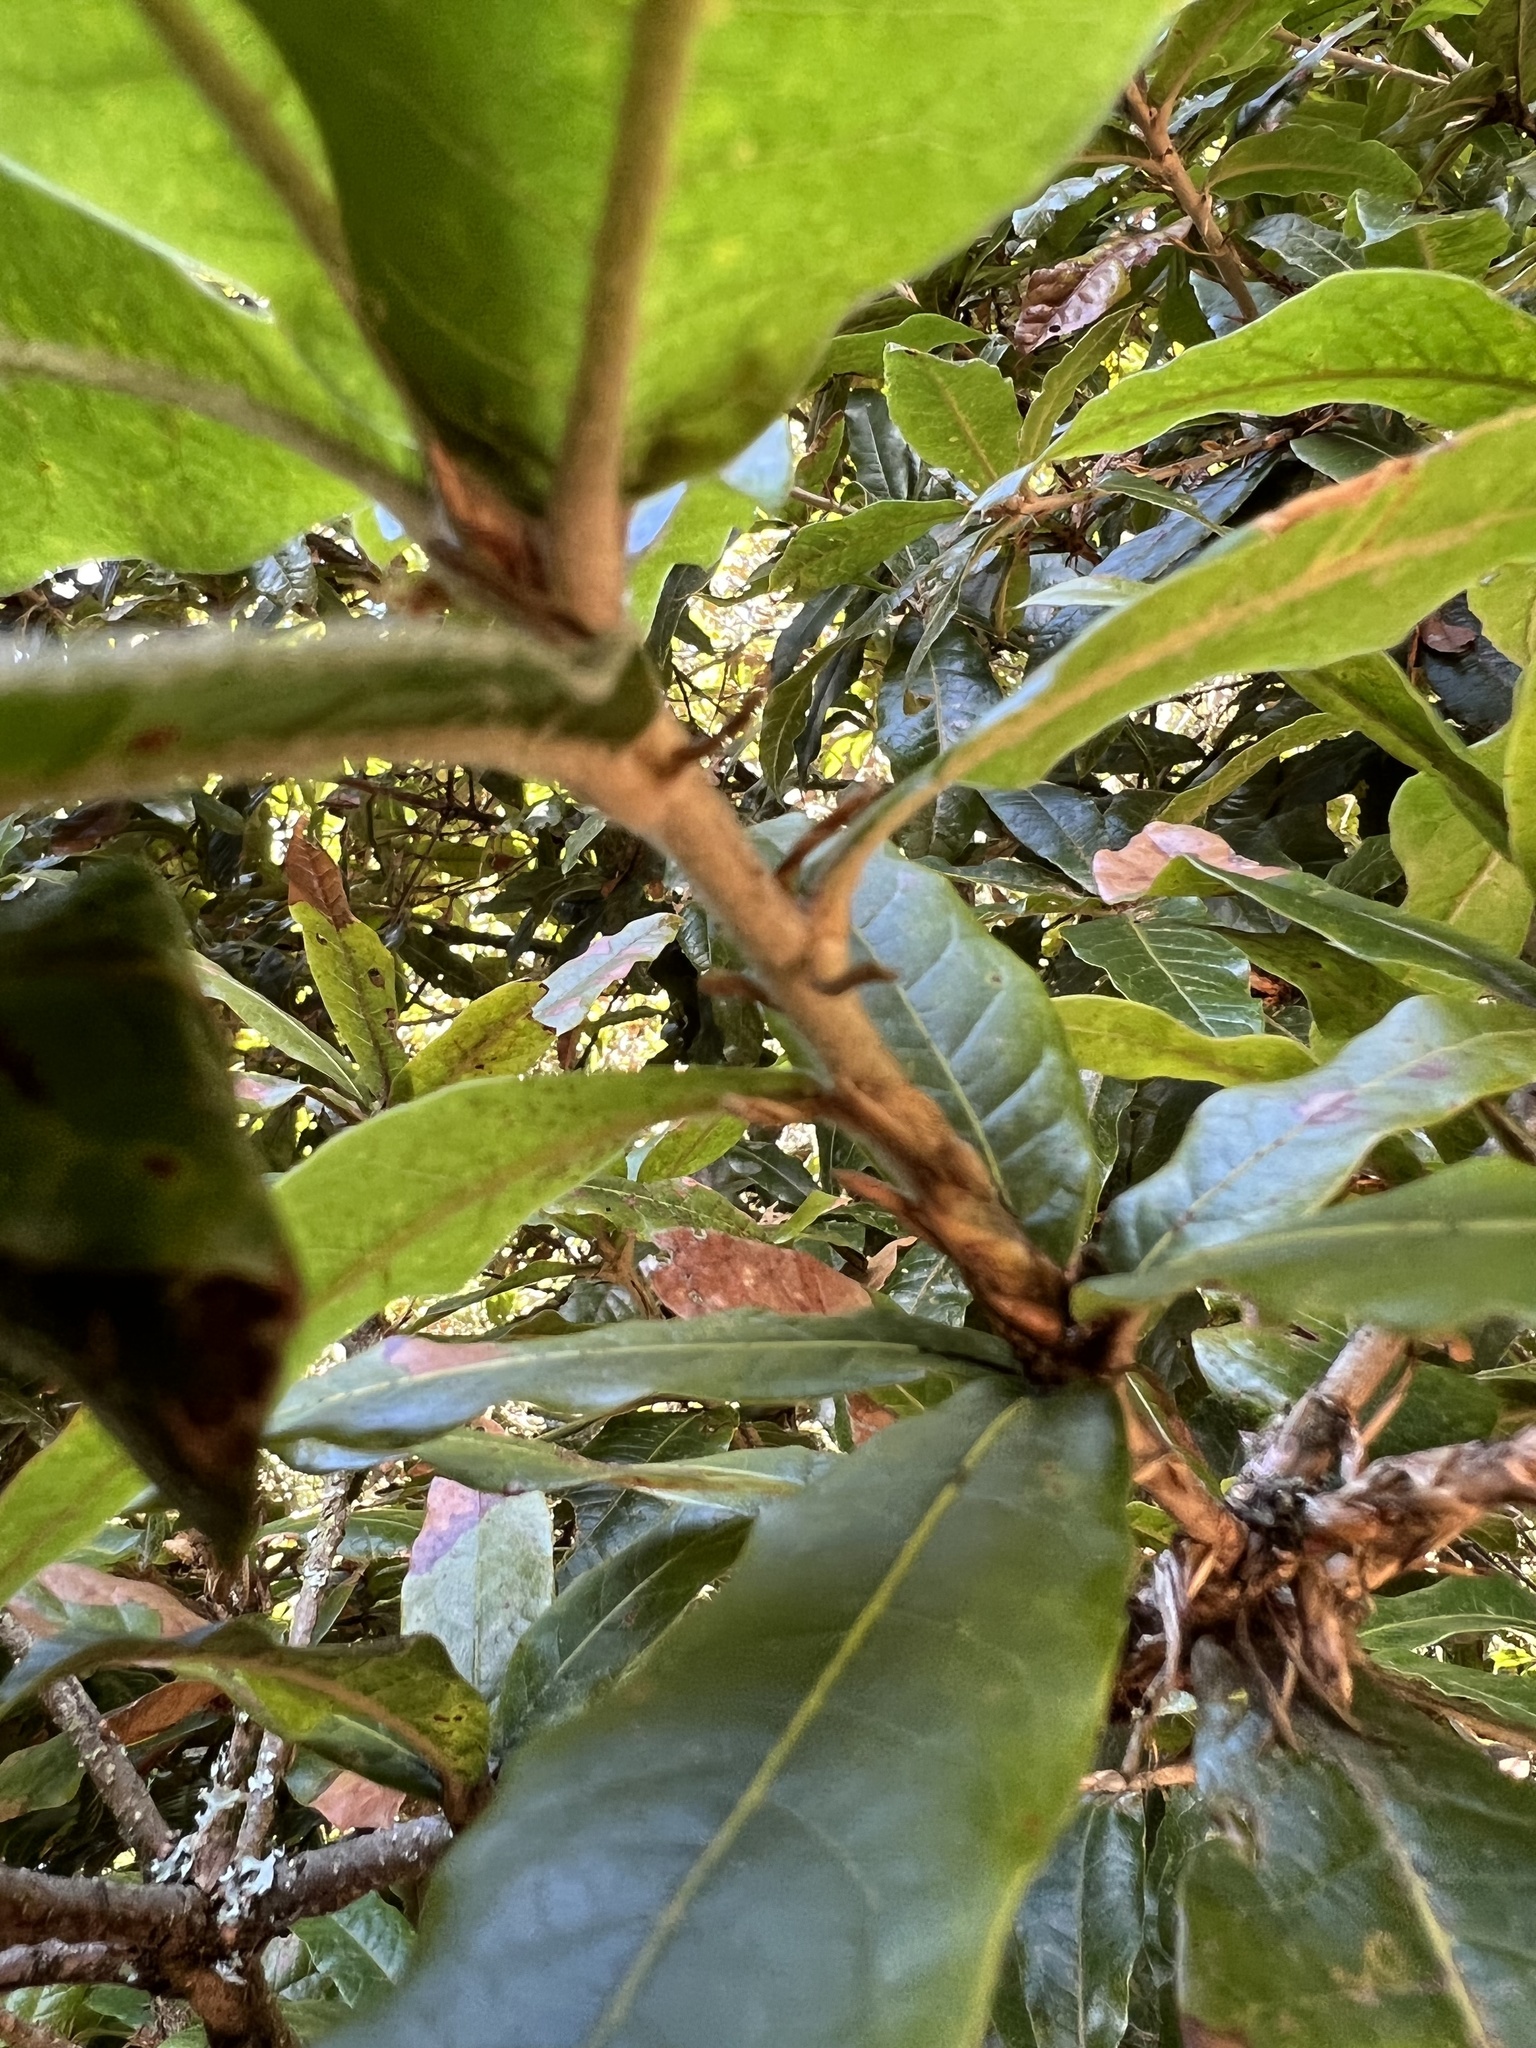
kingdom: Plantae
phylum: Tracheophyta
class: Magnoliopsida
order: Fagales
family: Fagaceae
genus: Quercus
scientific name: Quercus humboldtii
